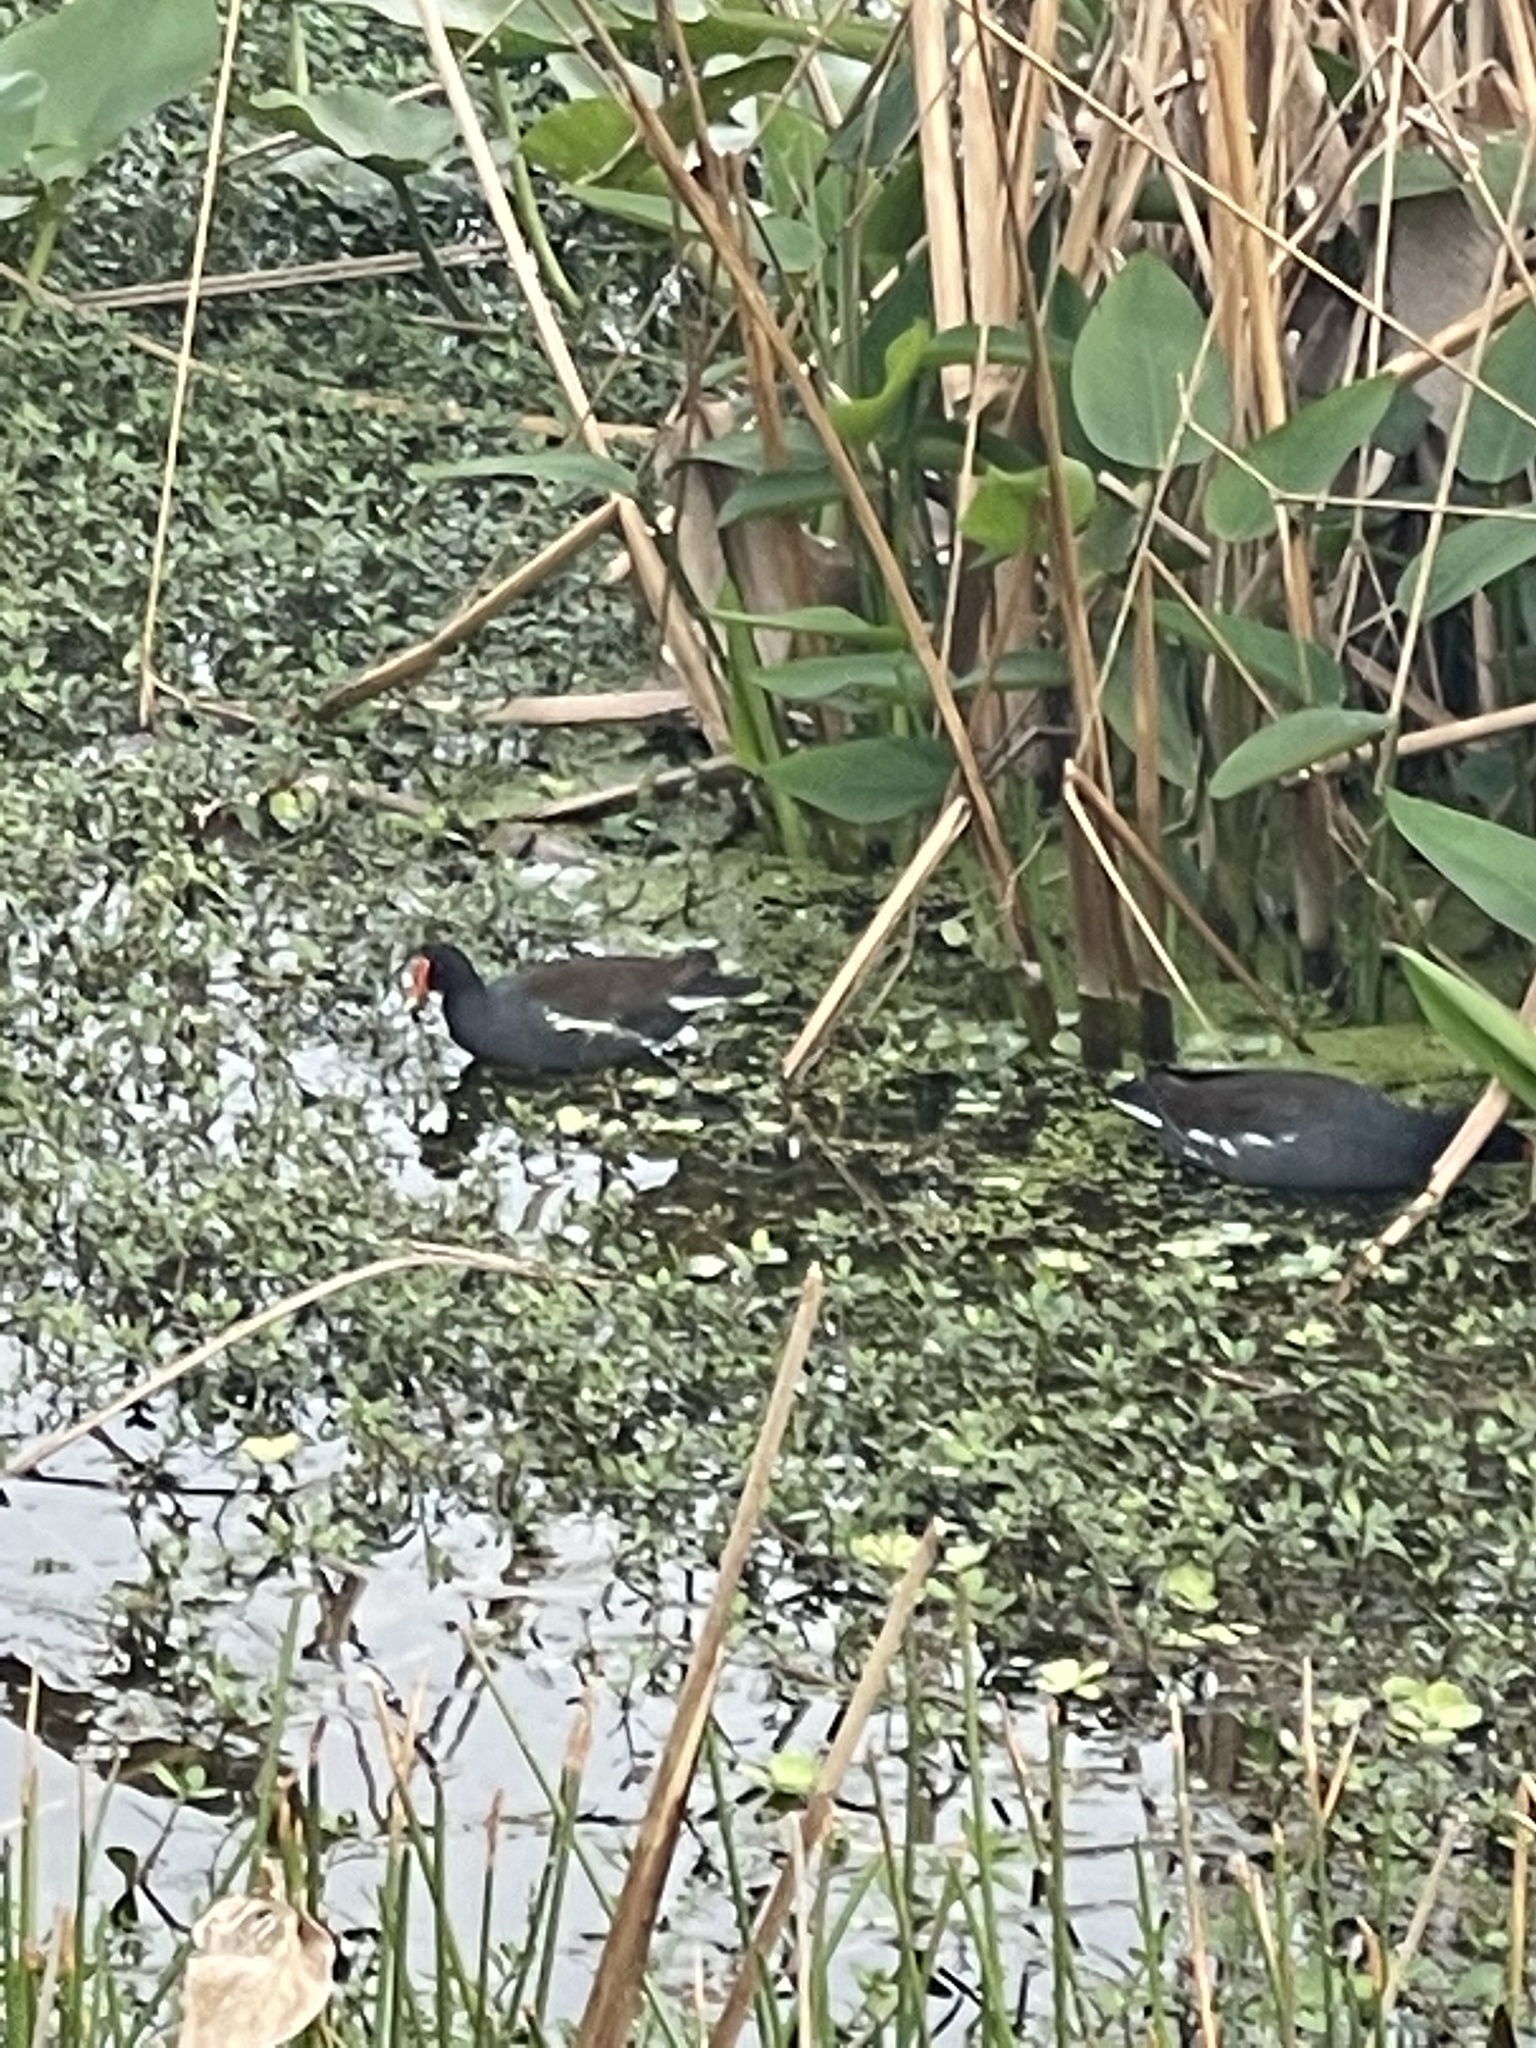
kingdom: Animalia
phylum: Chordata
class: Aves
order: Gruiformes
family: Rallidae
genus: Gallinula
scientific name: Gallinula chloropus
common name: Common moorhen
